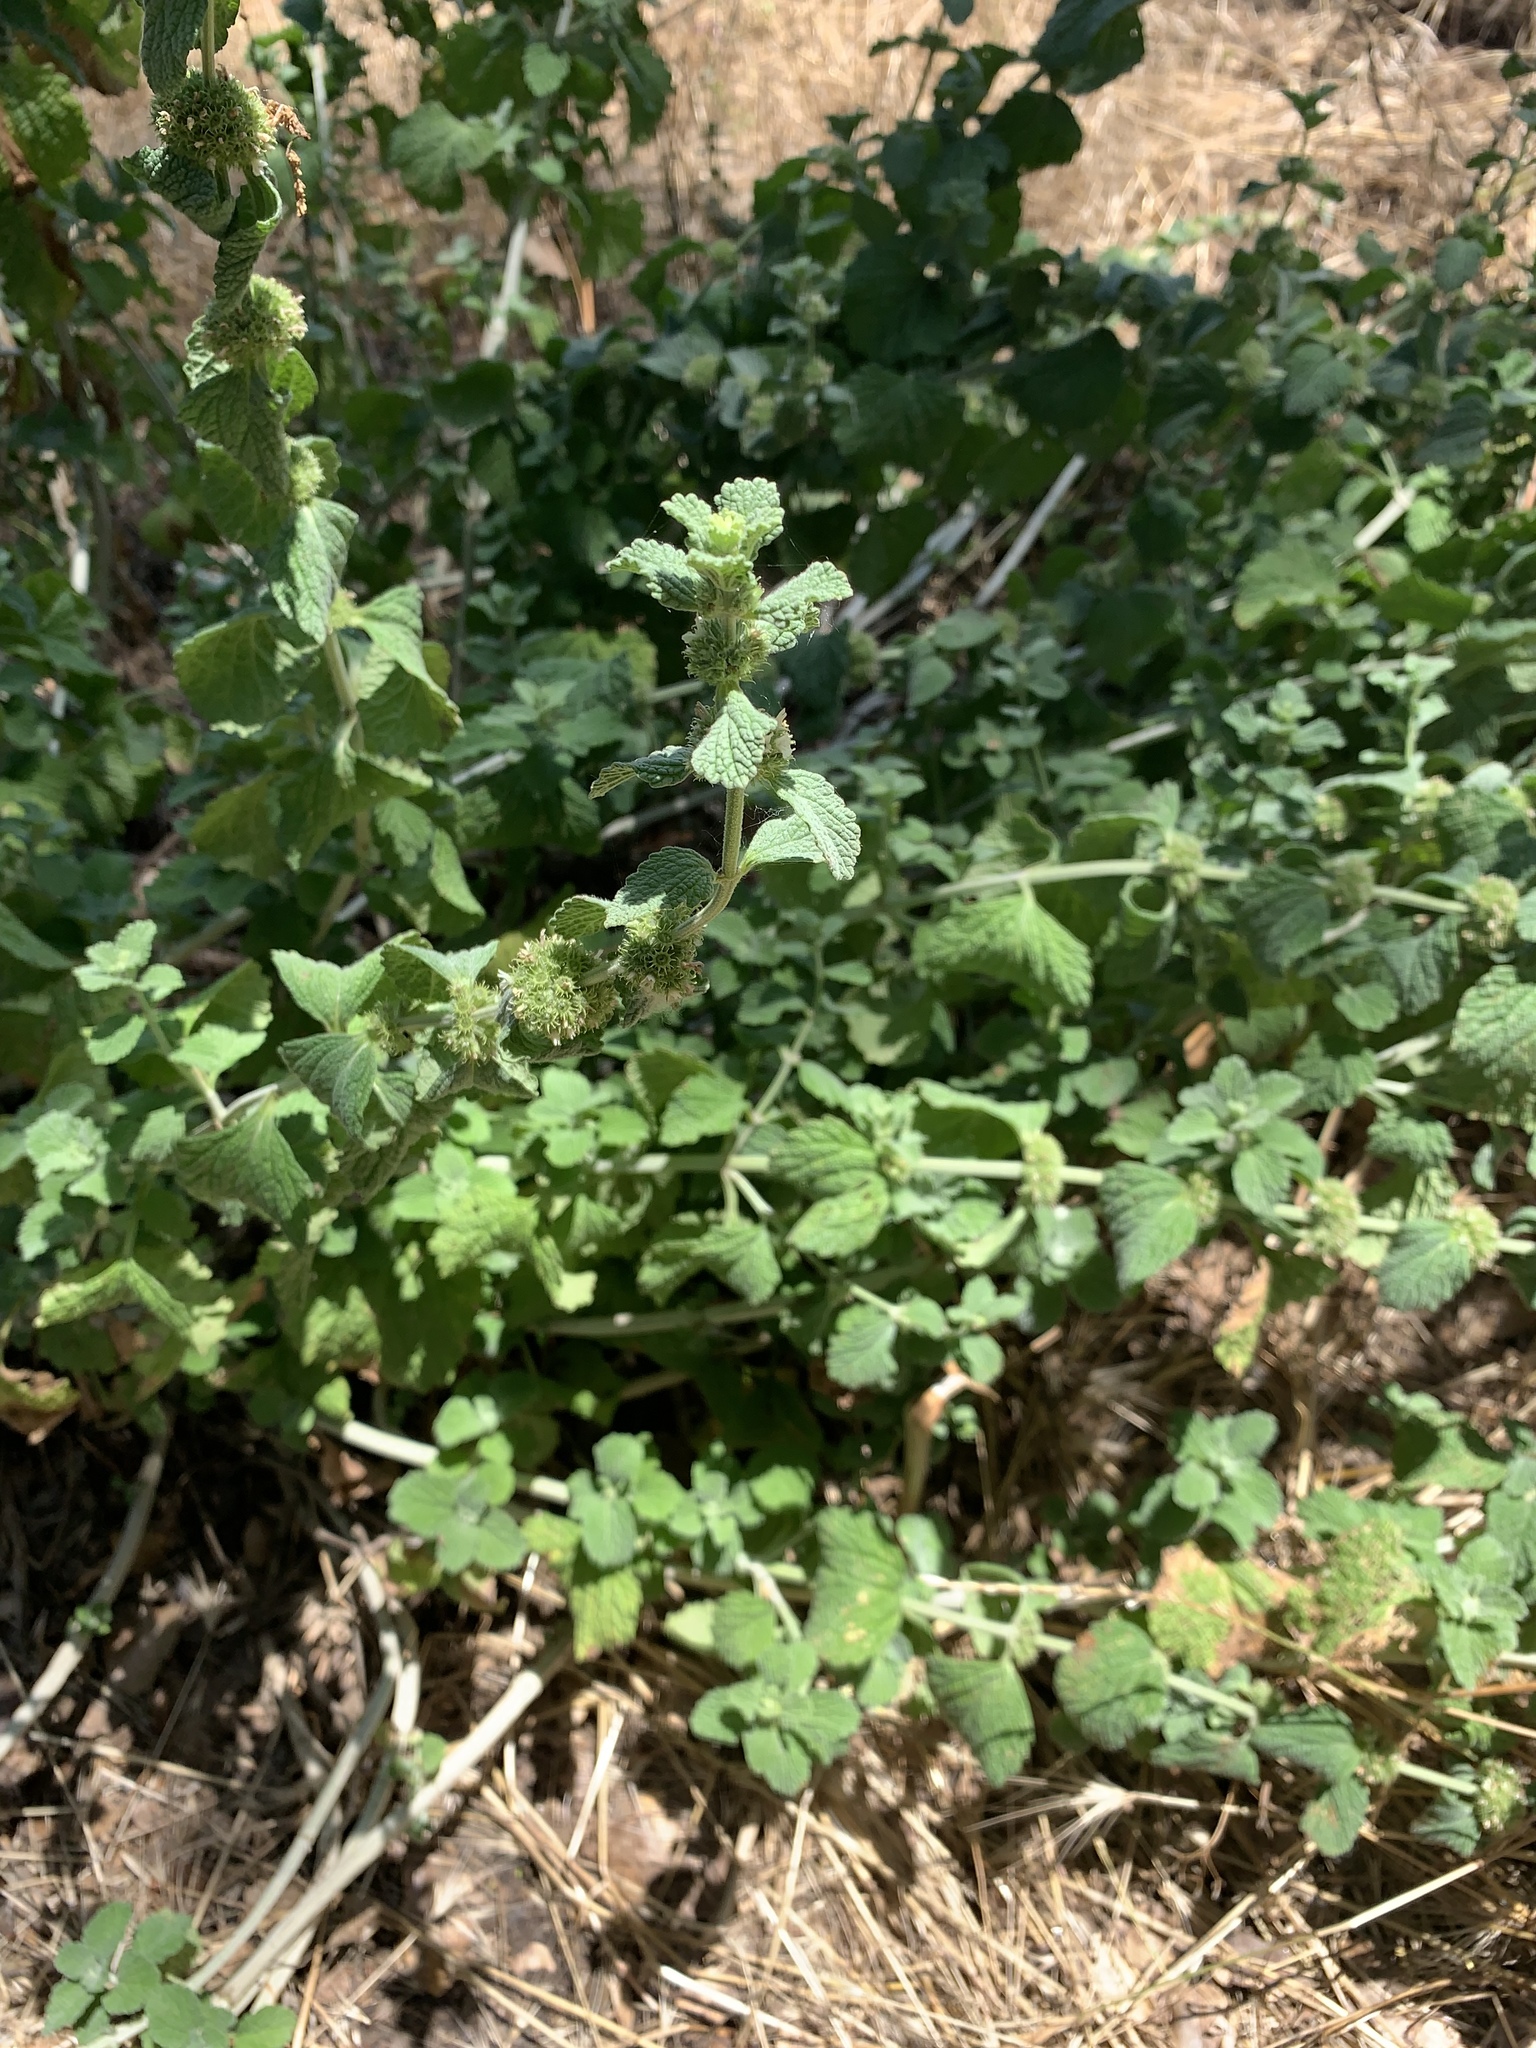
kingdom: Plantae
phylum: Tracheophyta
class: Magnoliopsida
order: Lamiales
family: Lamiaceae
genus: Marrubium
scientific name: Marrubium vulgare
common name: Horehound
